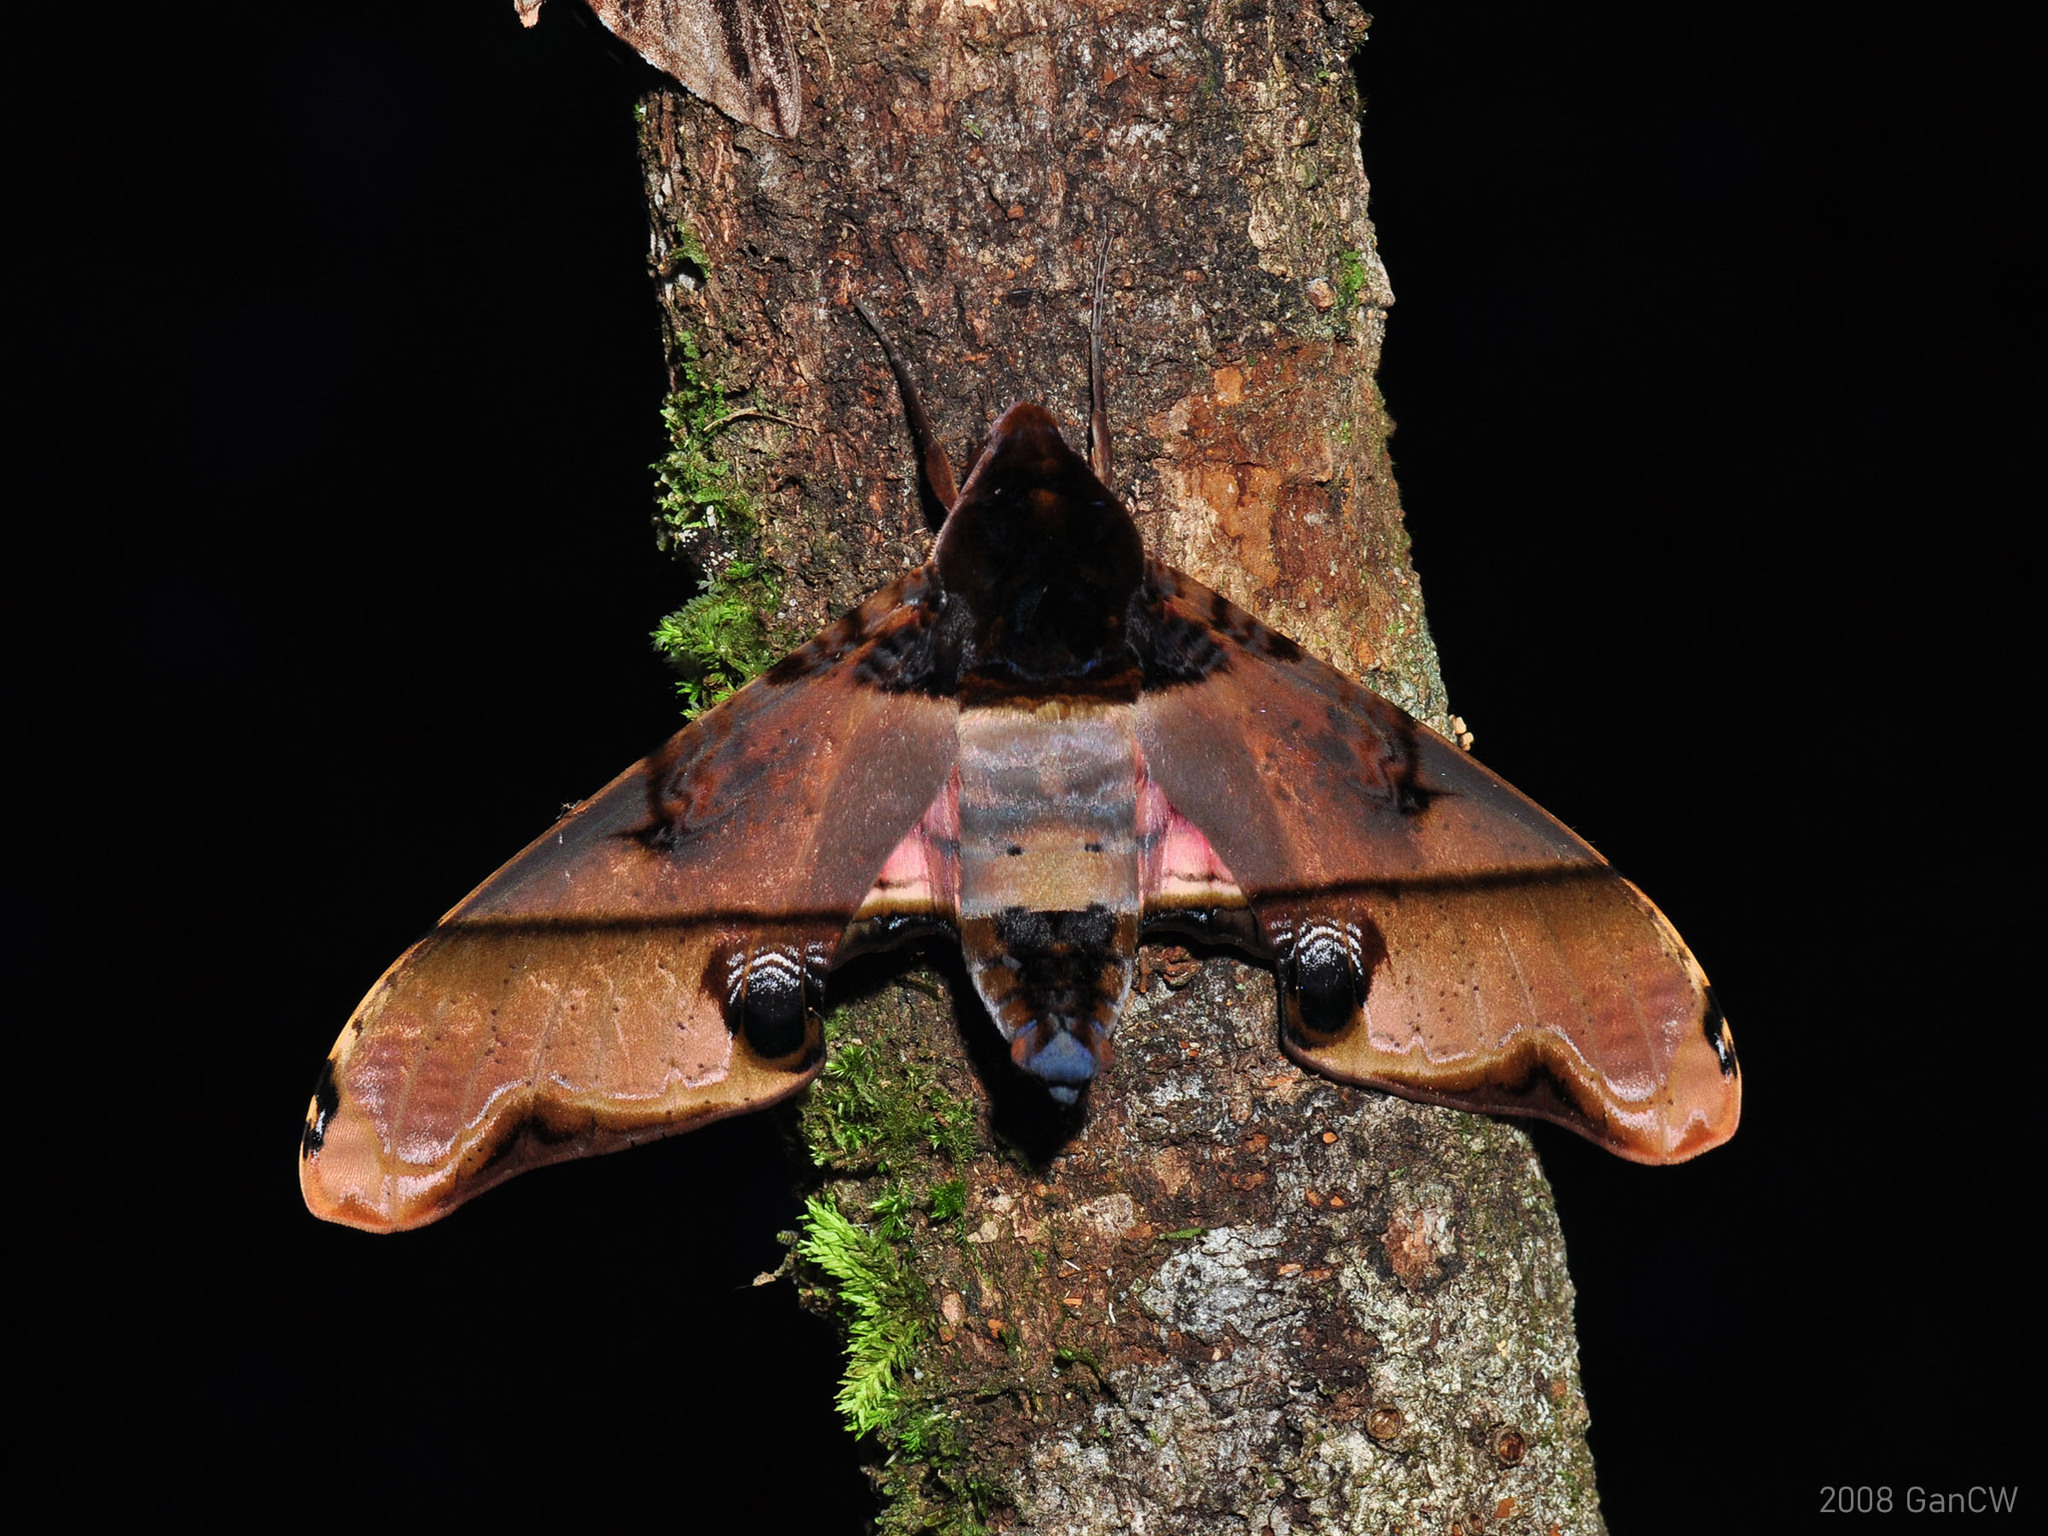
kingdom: Animalia
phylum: Arthropoda
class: Insecta
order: Lepidoptera
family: Sphingidae
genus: Amplypterus
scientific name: Amplypterus panopus
